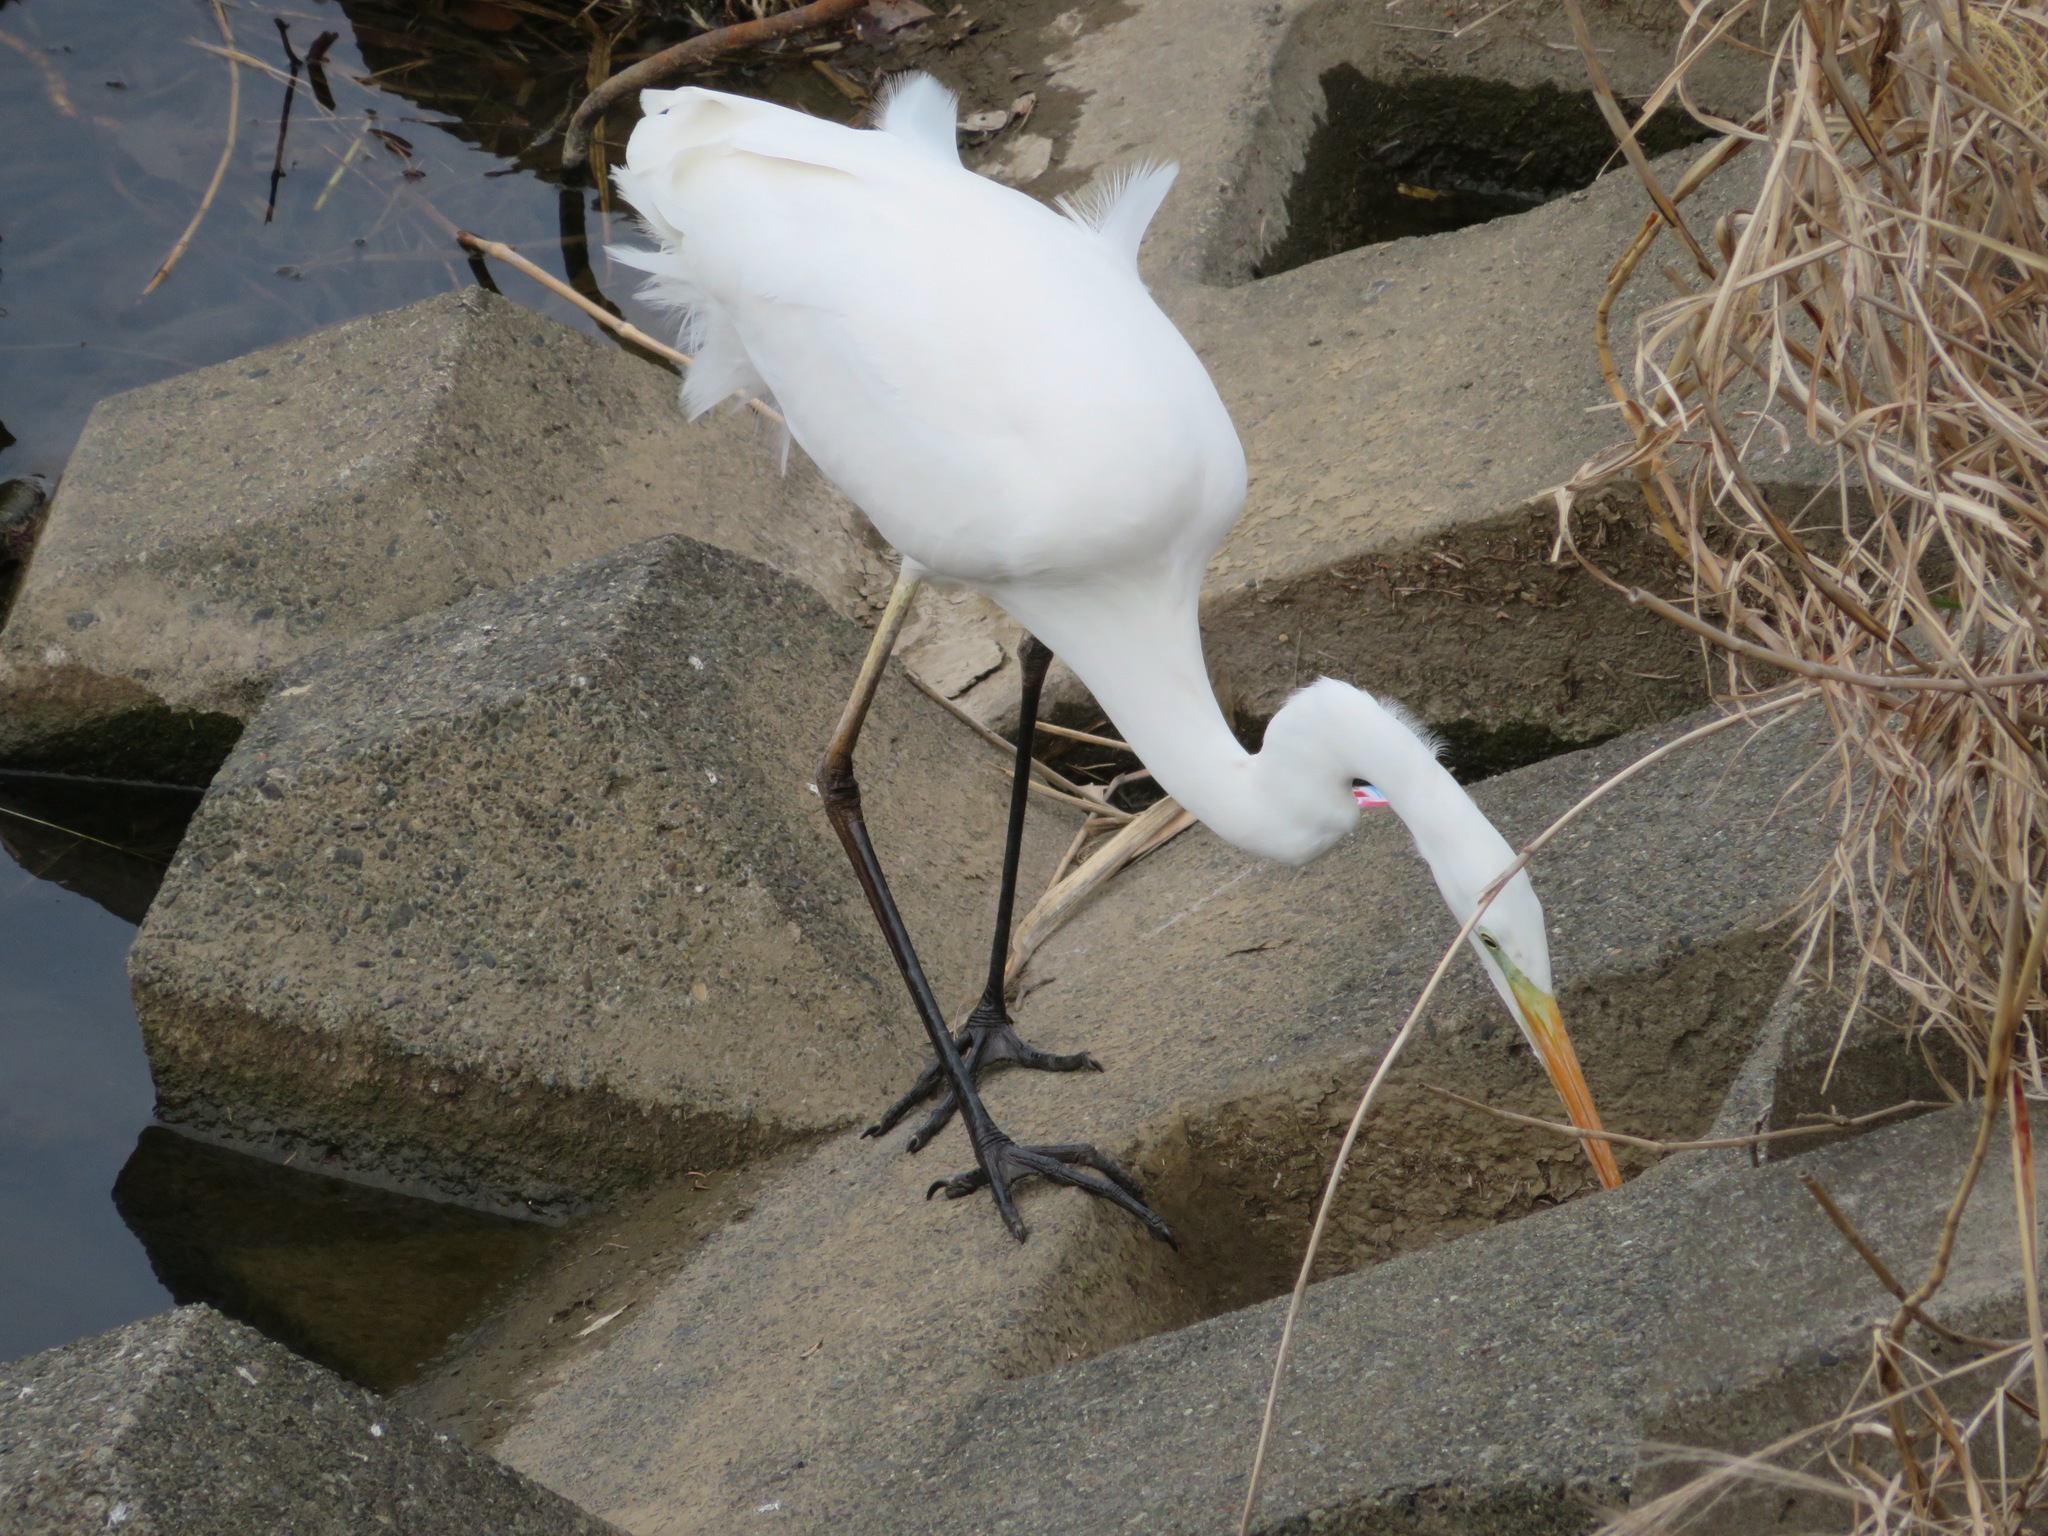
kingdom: Animalia
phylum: Chordata
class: Aves
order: Pelecaniformes
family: Ardeidae
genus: Ardea
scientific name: Ardea alba
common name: Great egret
